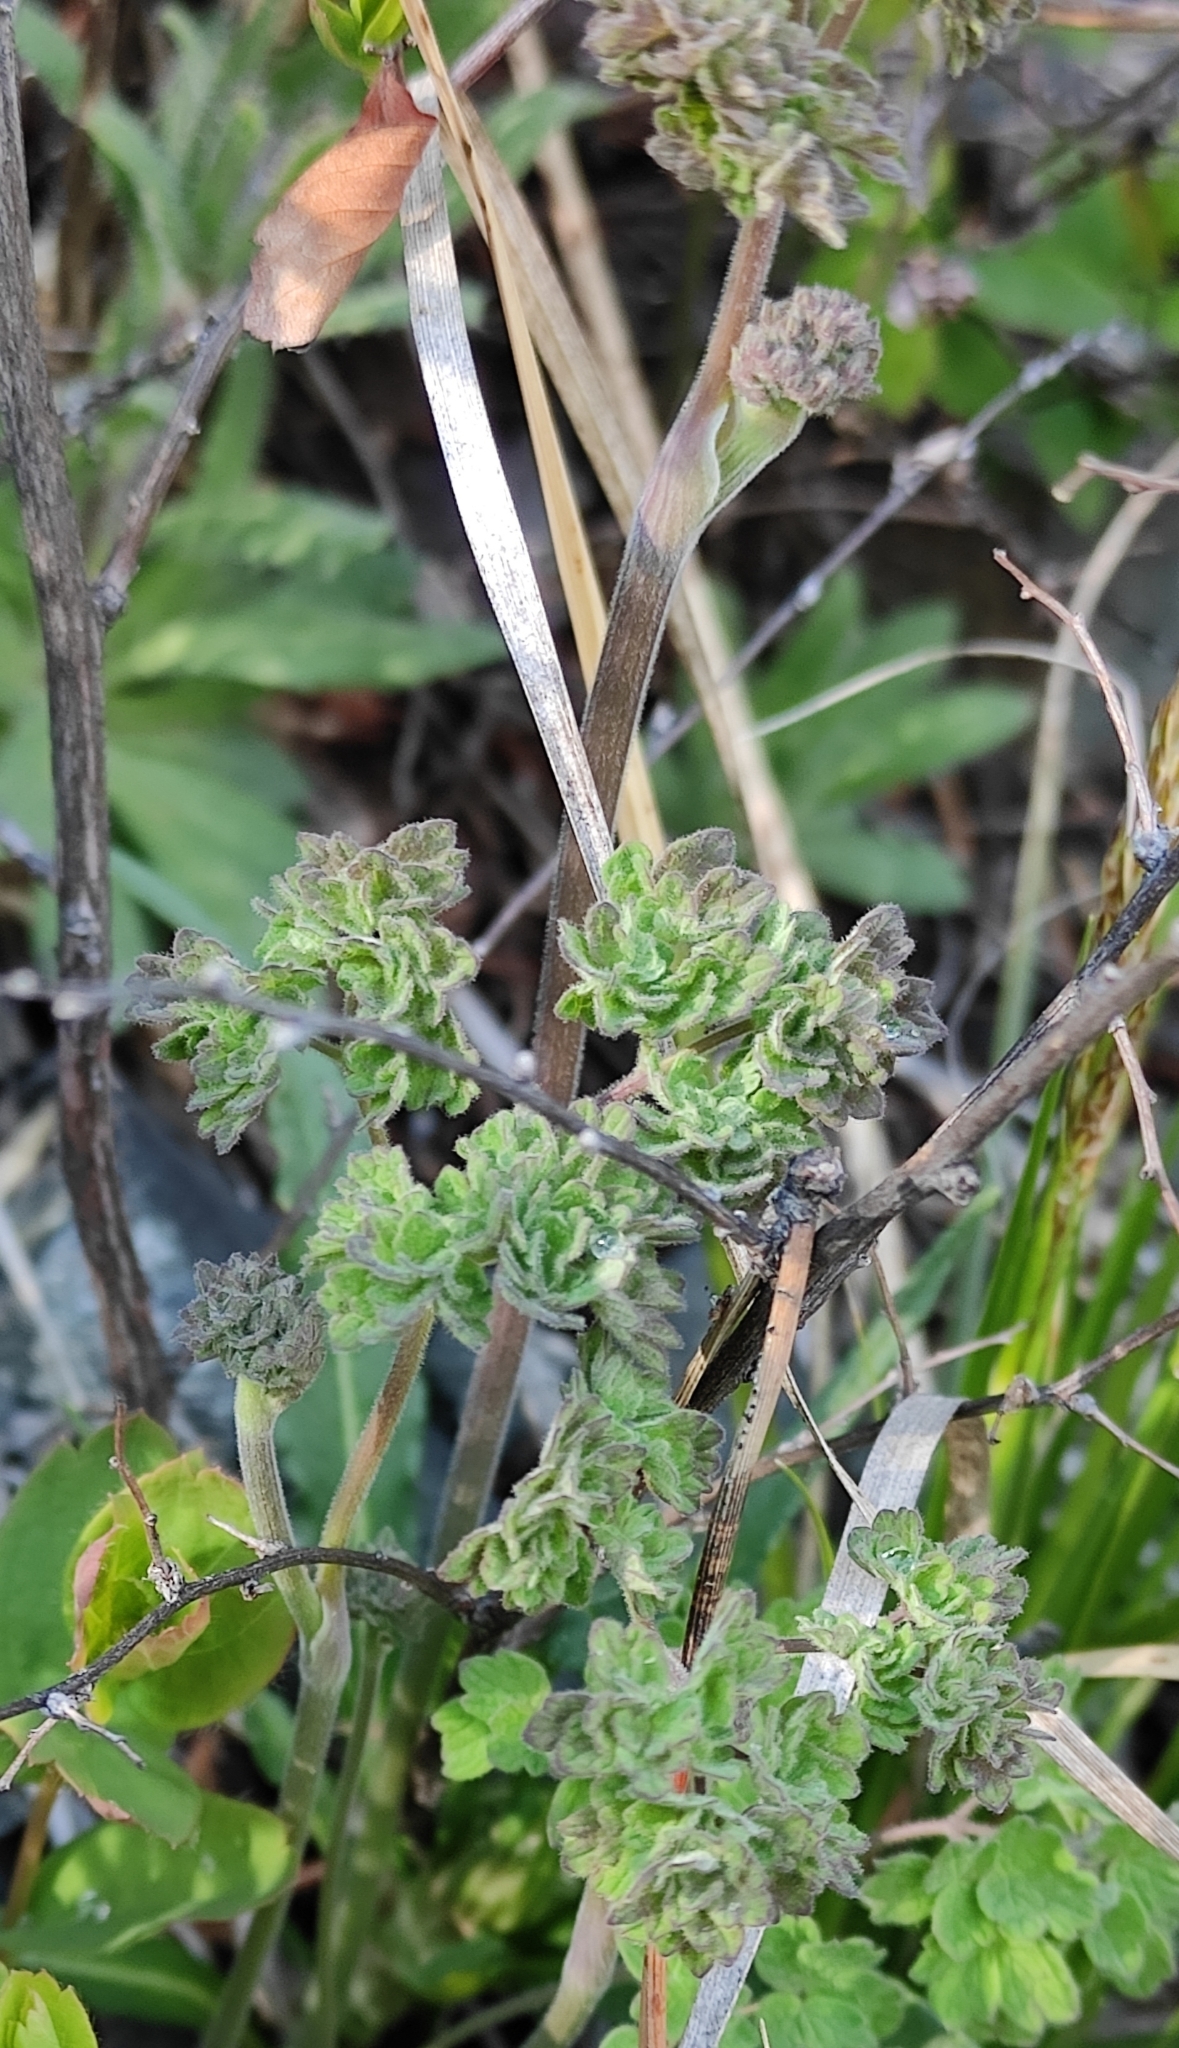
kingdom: Plantae
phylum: Tracheophyta
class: Magnoliopsida
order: Ranunculales
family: Ranunculaceae
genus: Thalictrum
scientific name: Thalictrum foetidum
